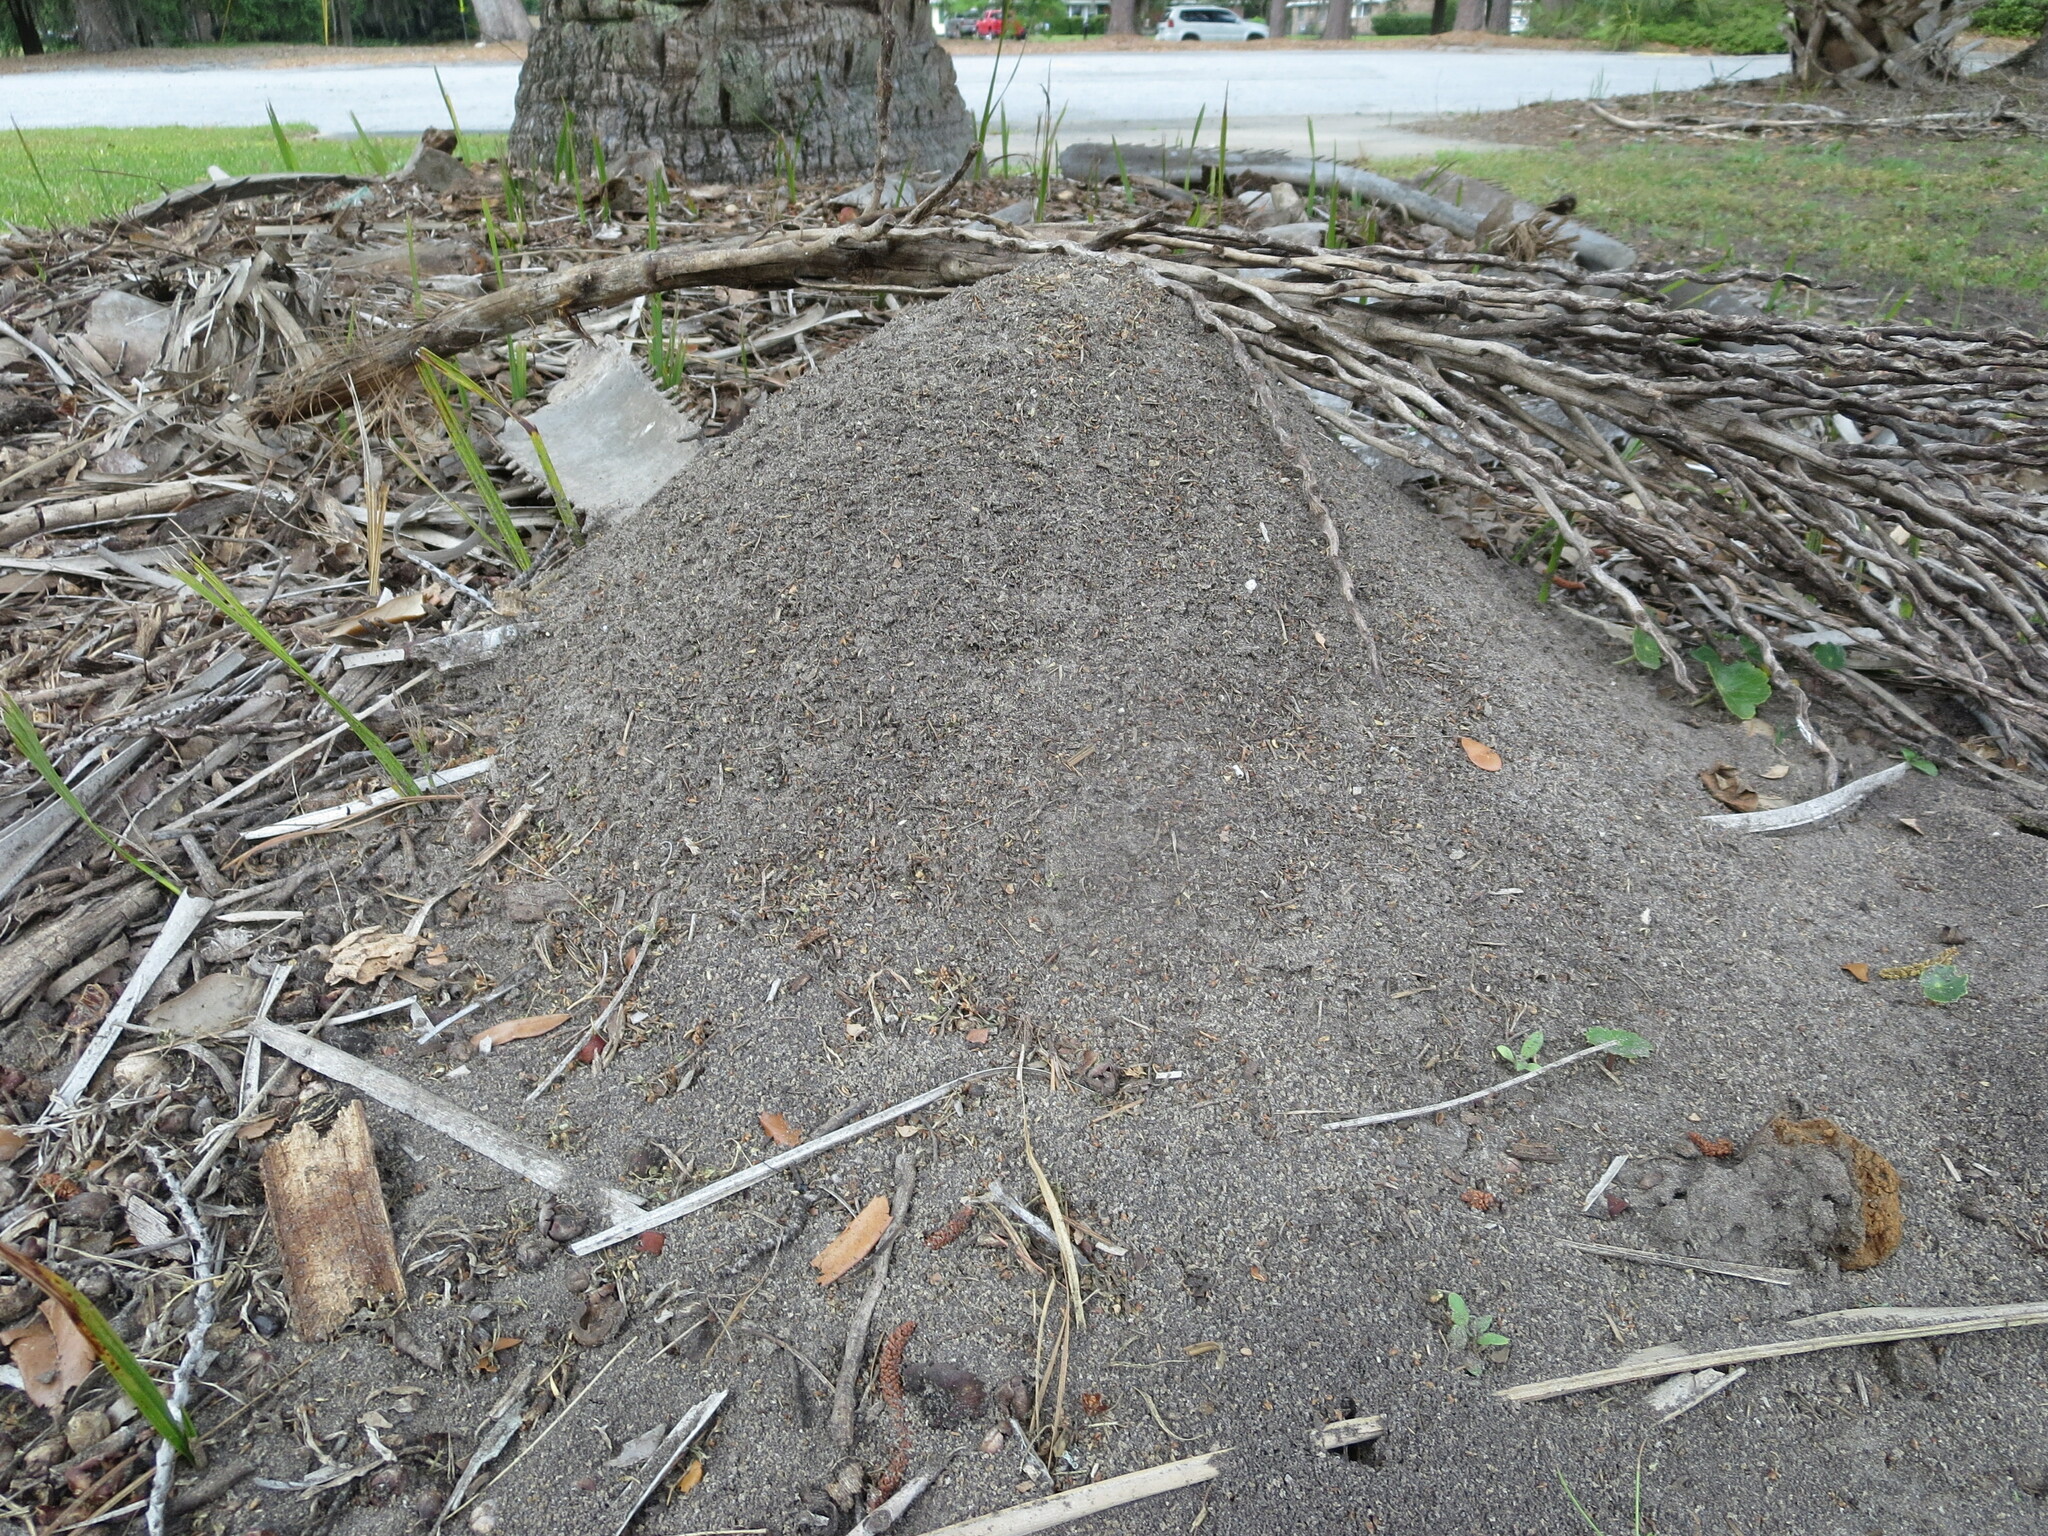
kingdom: Animalia
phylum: Arthropoda
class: Insecta
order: Hymenoptera
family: Formicidae
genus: Solenopsis
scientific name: Solenopsis invicta
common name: Red imported fire ant
